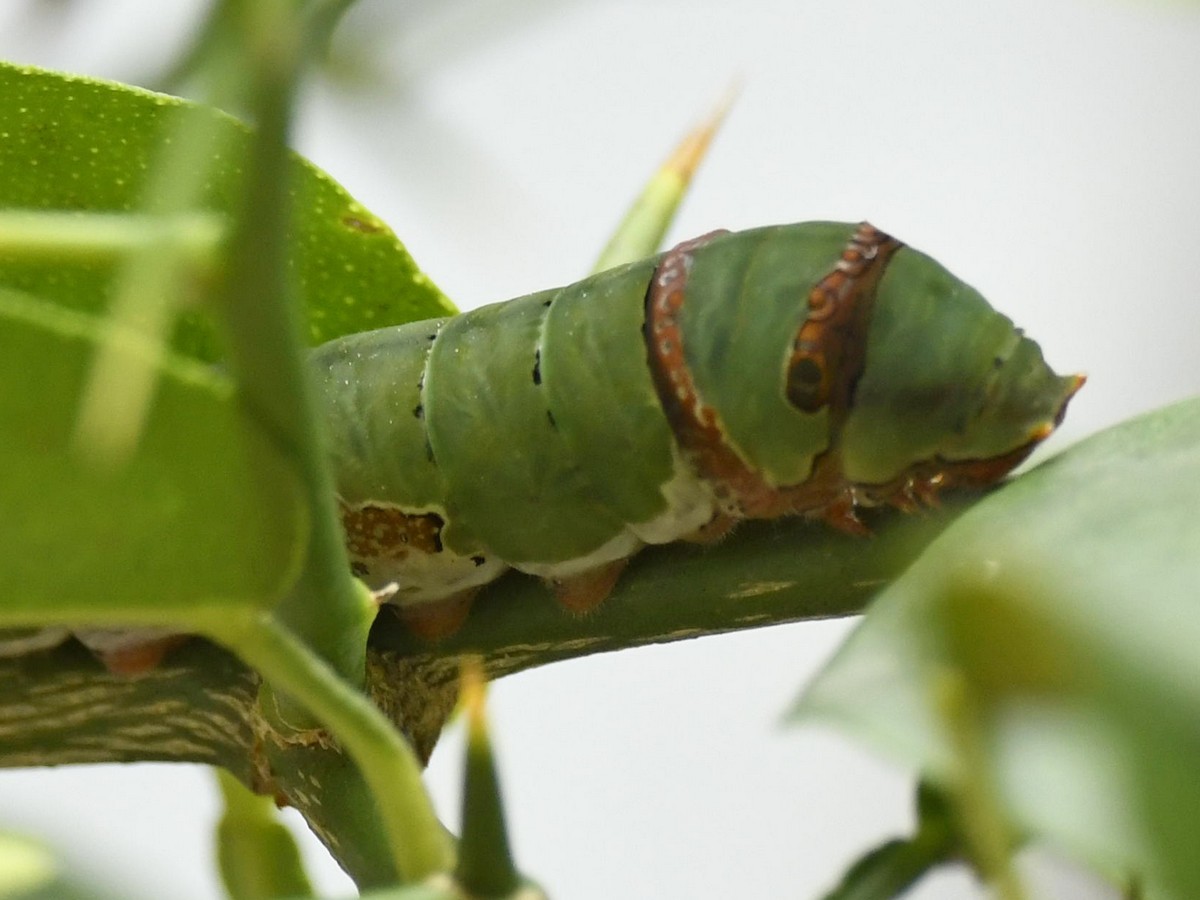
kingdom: Animalia
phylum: Arthropoda
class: Insecta
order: Lepidoptera
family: Papilionidae
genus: Papilio
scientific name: Papilio demoleus
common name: Lime butterfly
